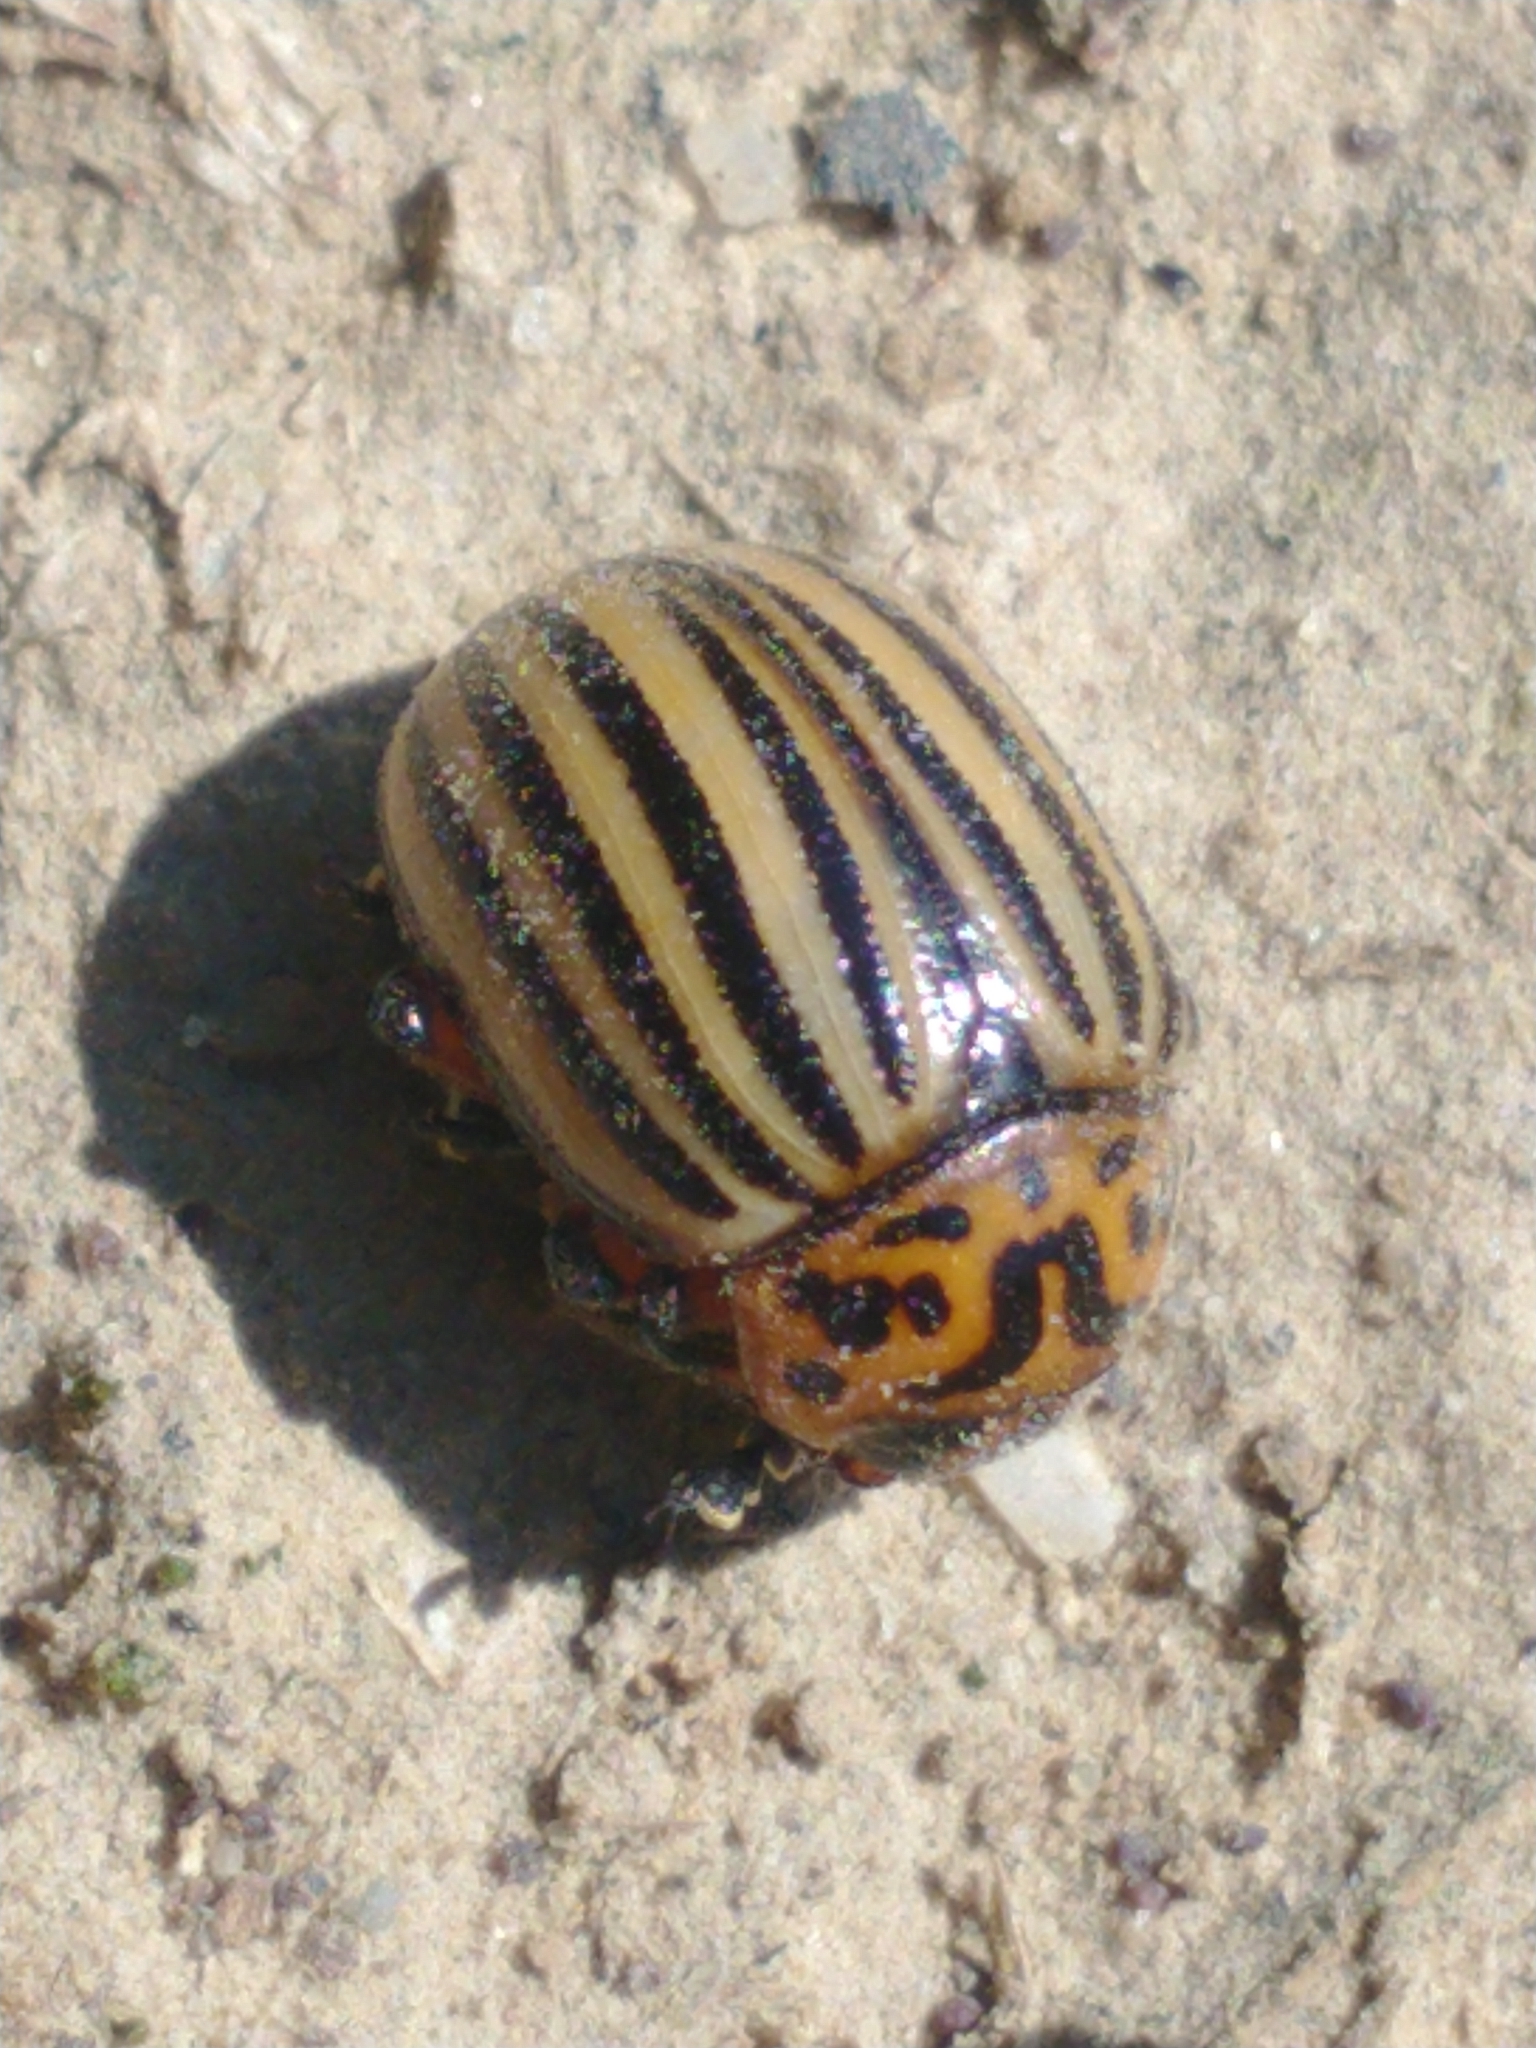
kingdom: Animalia
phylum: Arthropoda
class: Insecta
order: Coleoptera
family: Chrysomelidae
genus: Leptinotarsa
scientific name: Leptinotarsa decemlineata
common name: Colorado potato beetle
